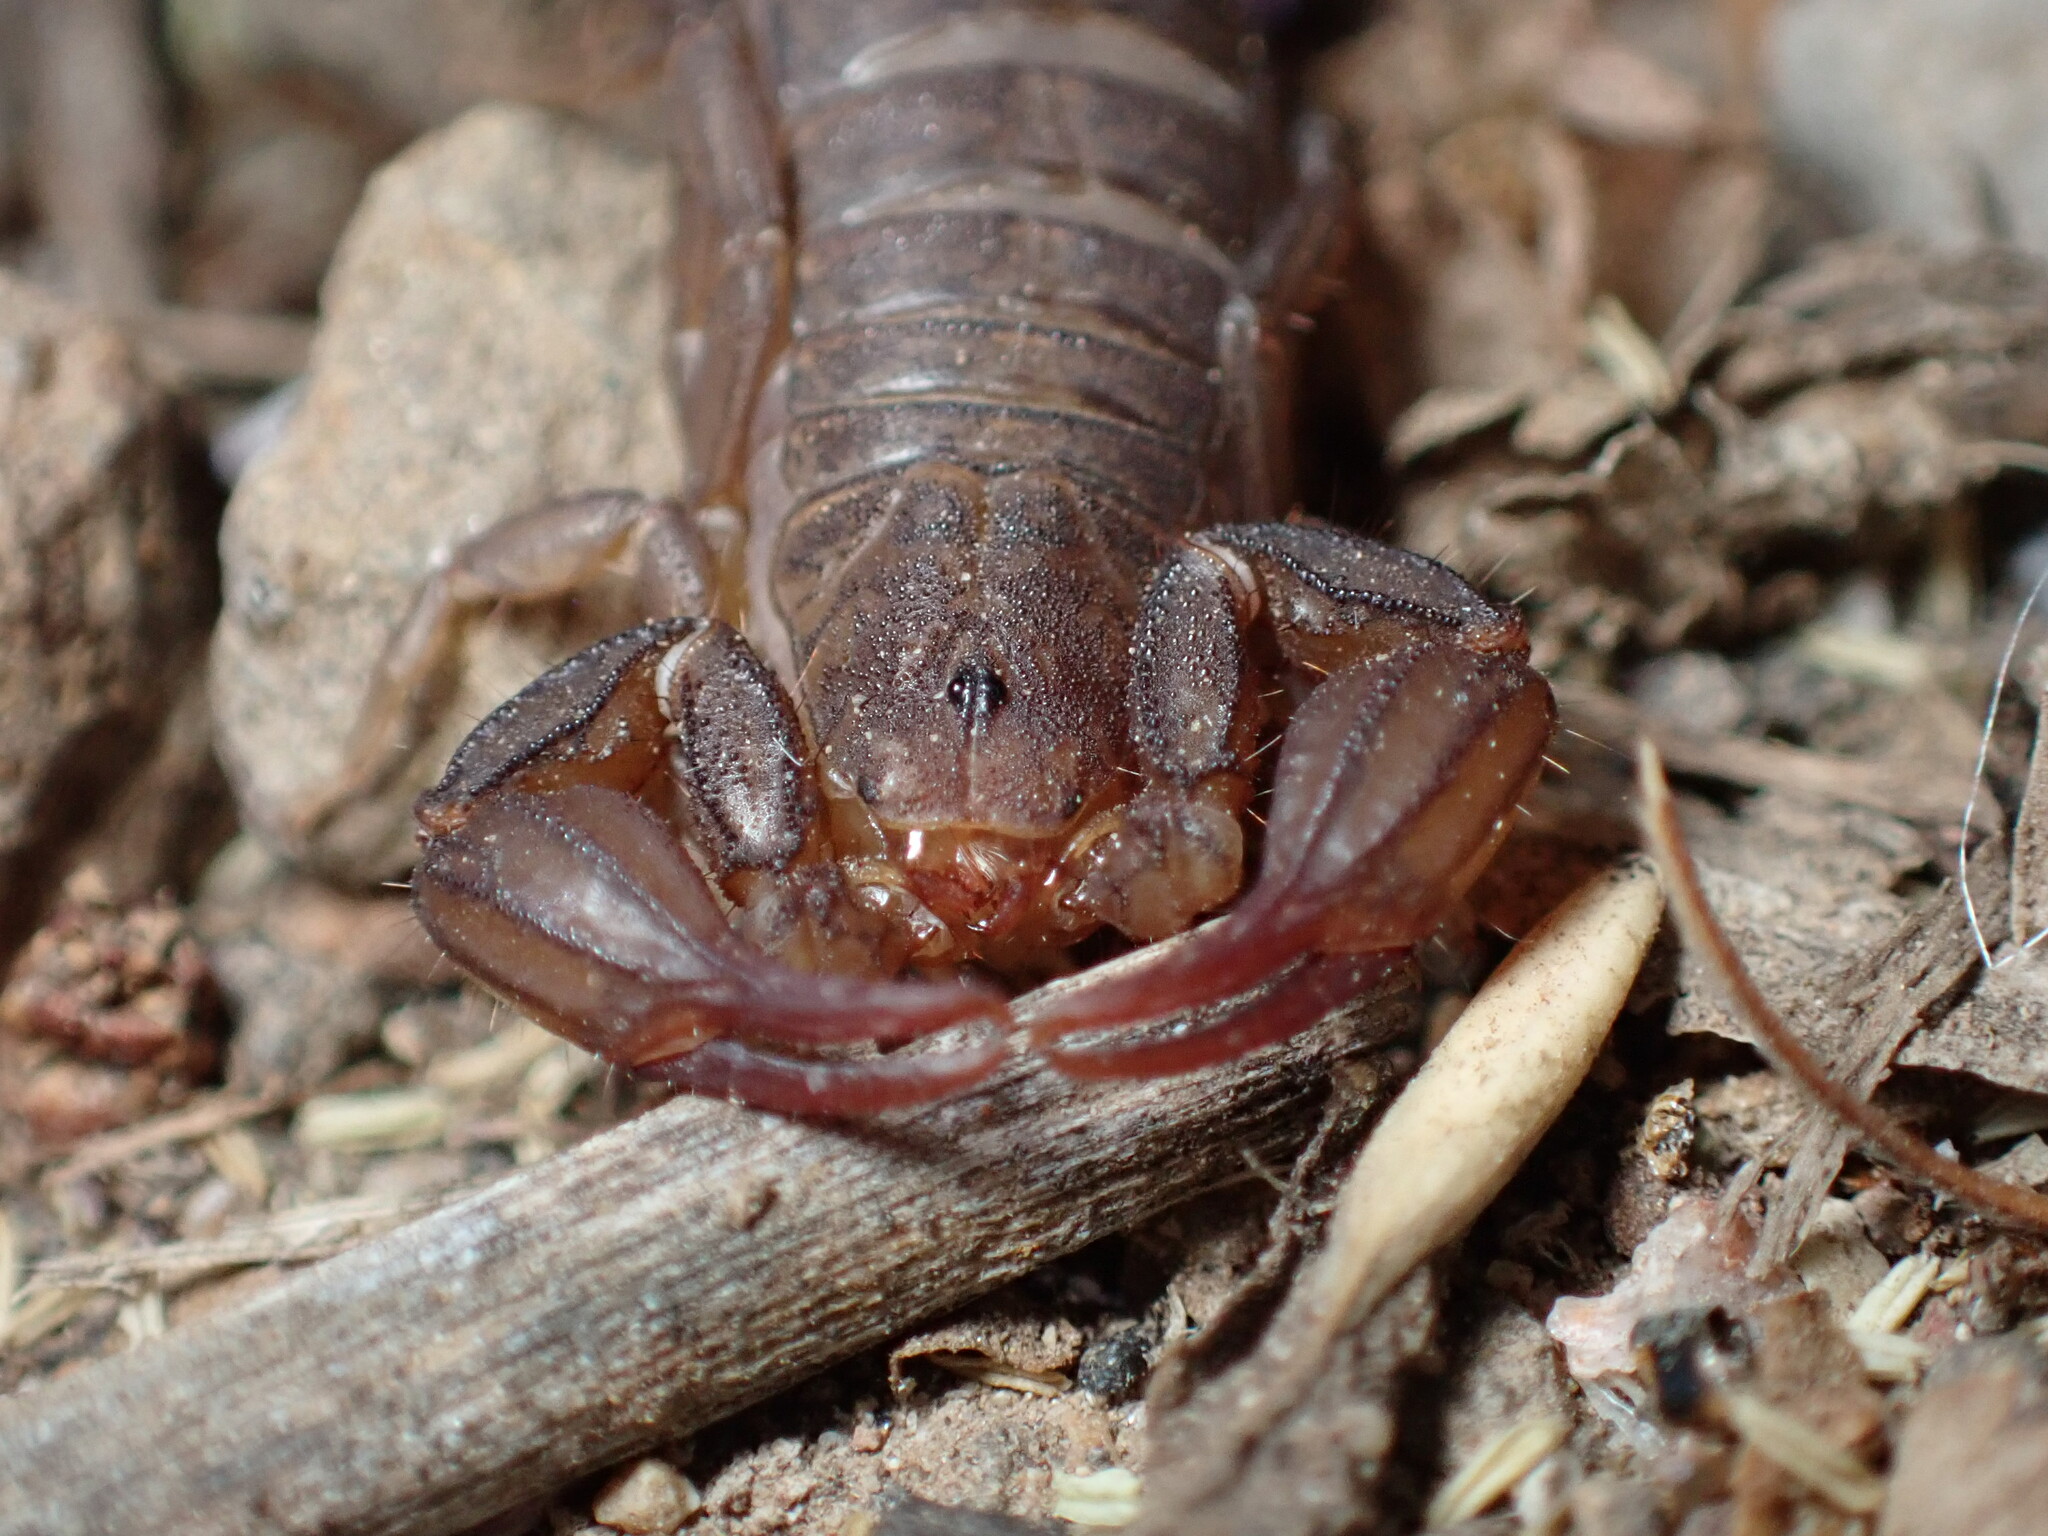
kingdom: Animalia
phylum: Arthropoda
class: Arachnida
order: Scorpiones
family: Vaejovidae
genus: Catalinia
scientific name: Catalinia thompsoni
